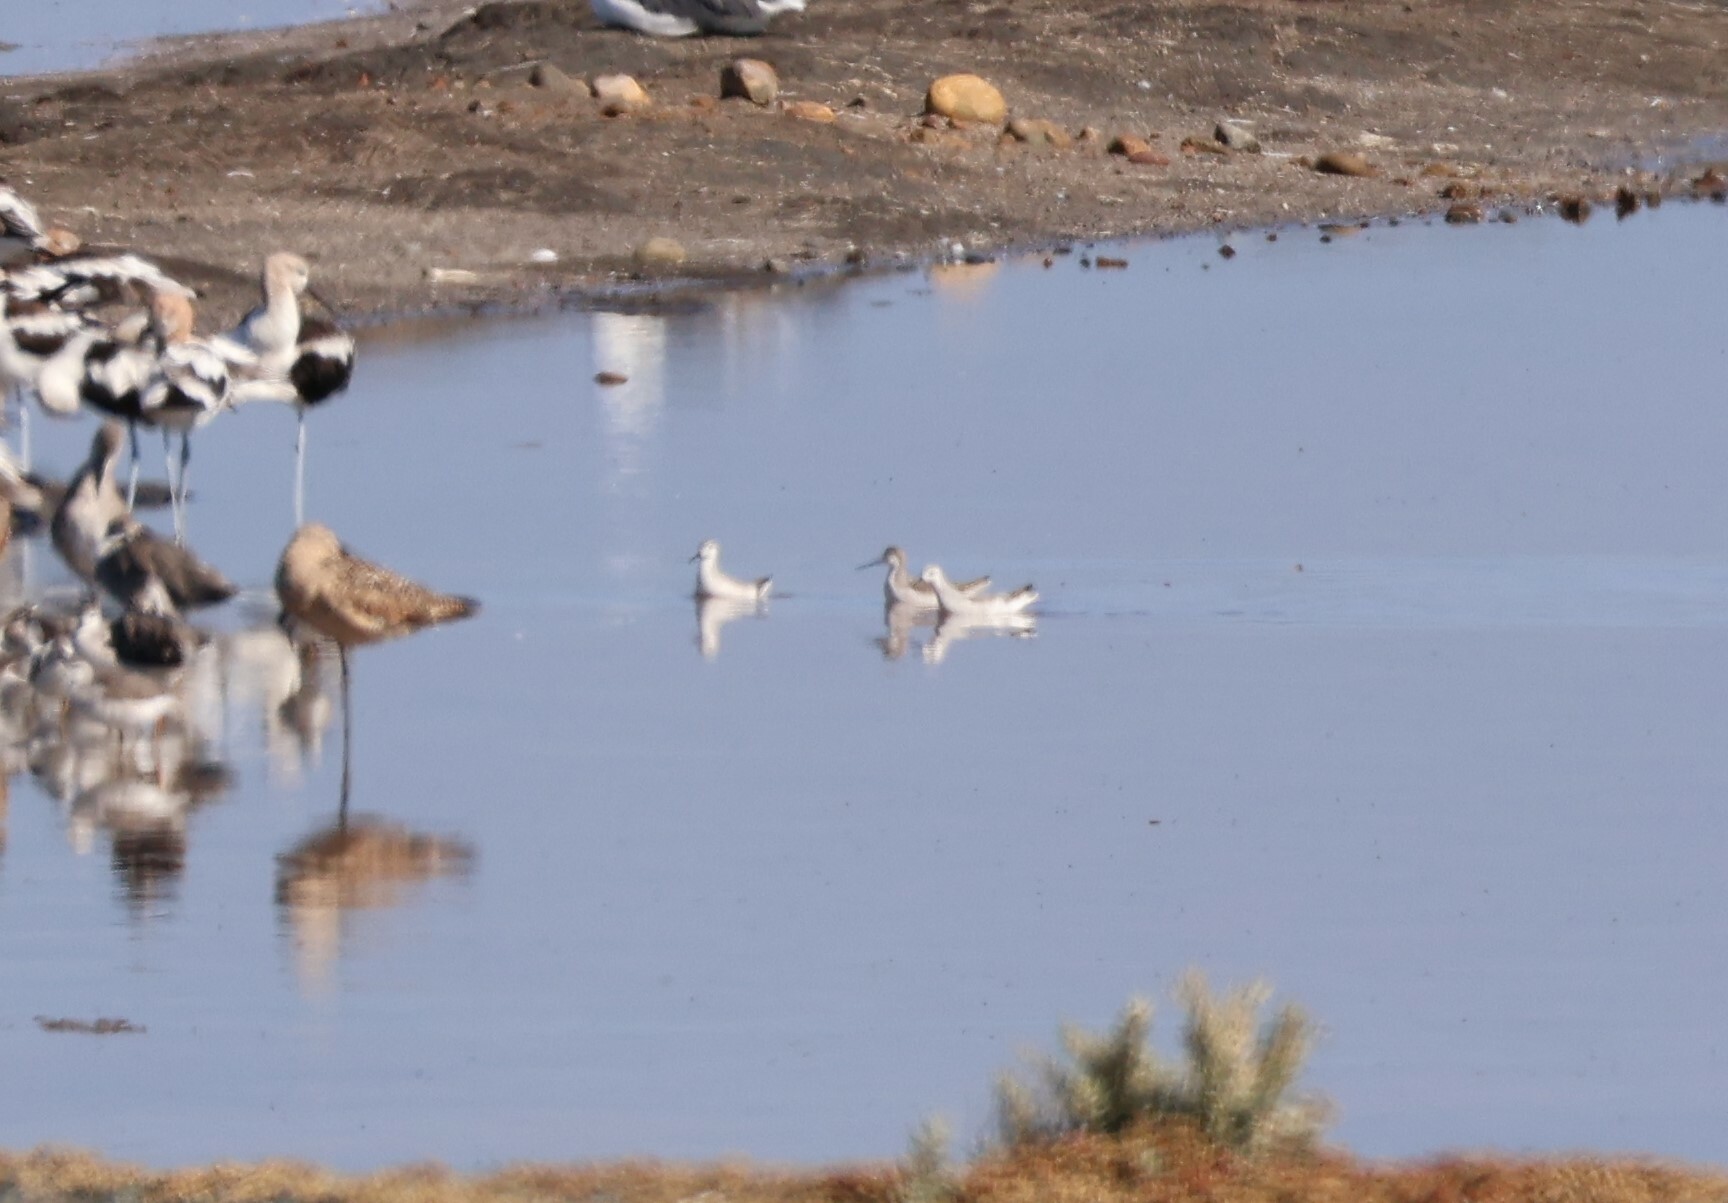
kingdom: Animalia
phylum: Chordata
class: Aves
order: Charadriiformes
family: Scolopacidae
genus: Phalaropus
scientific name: Phalaropus tricolor
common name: Wilson's phalarope
